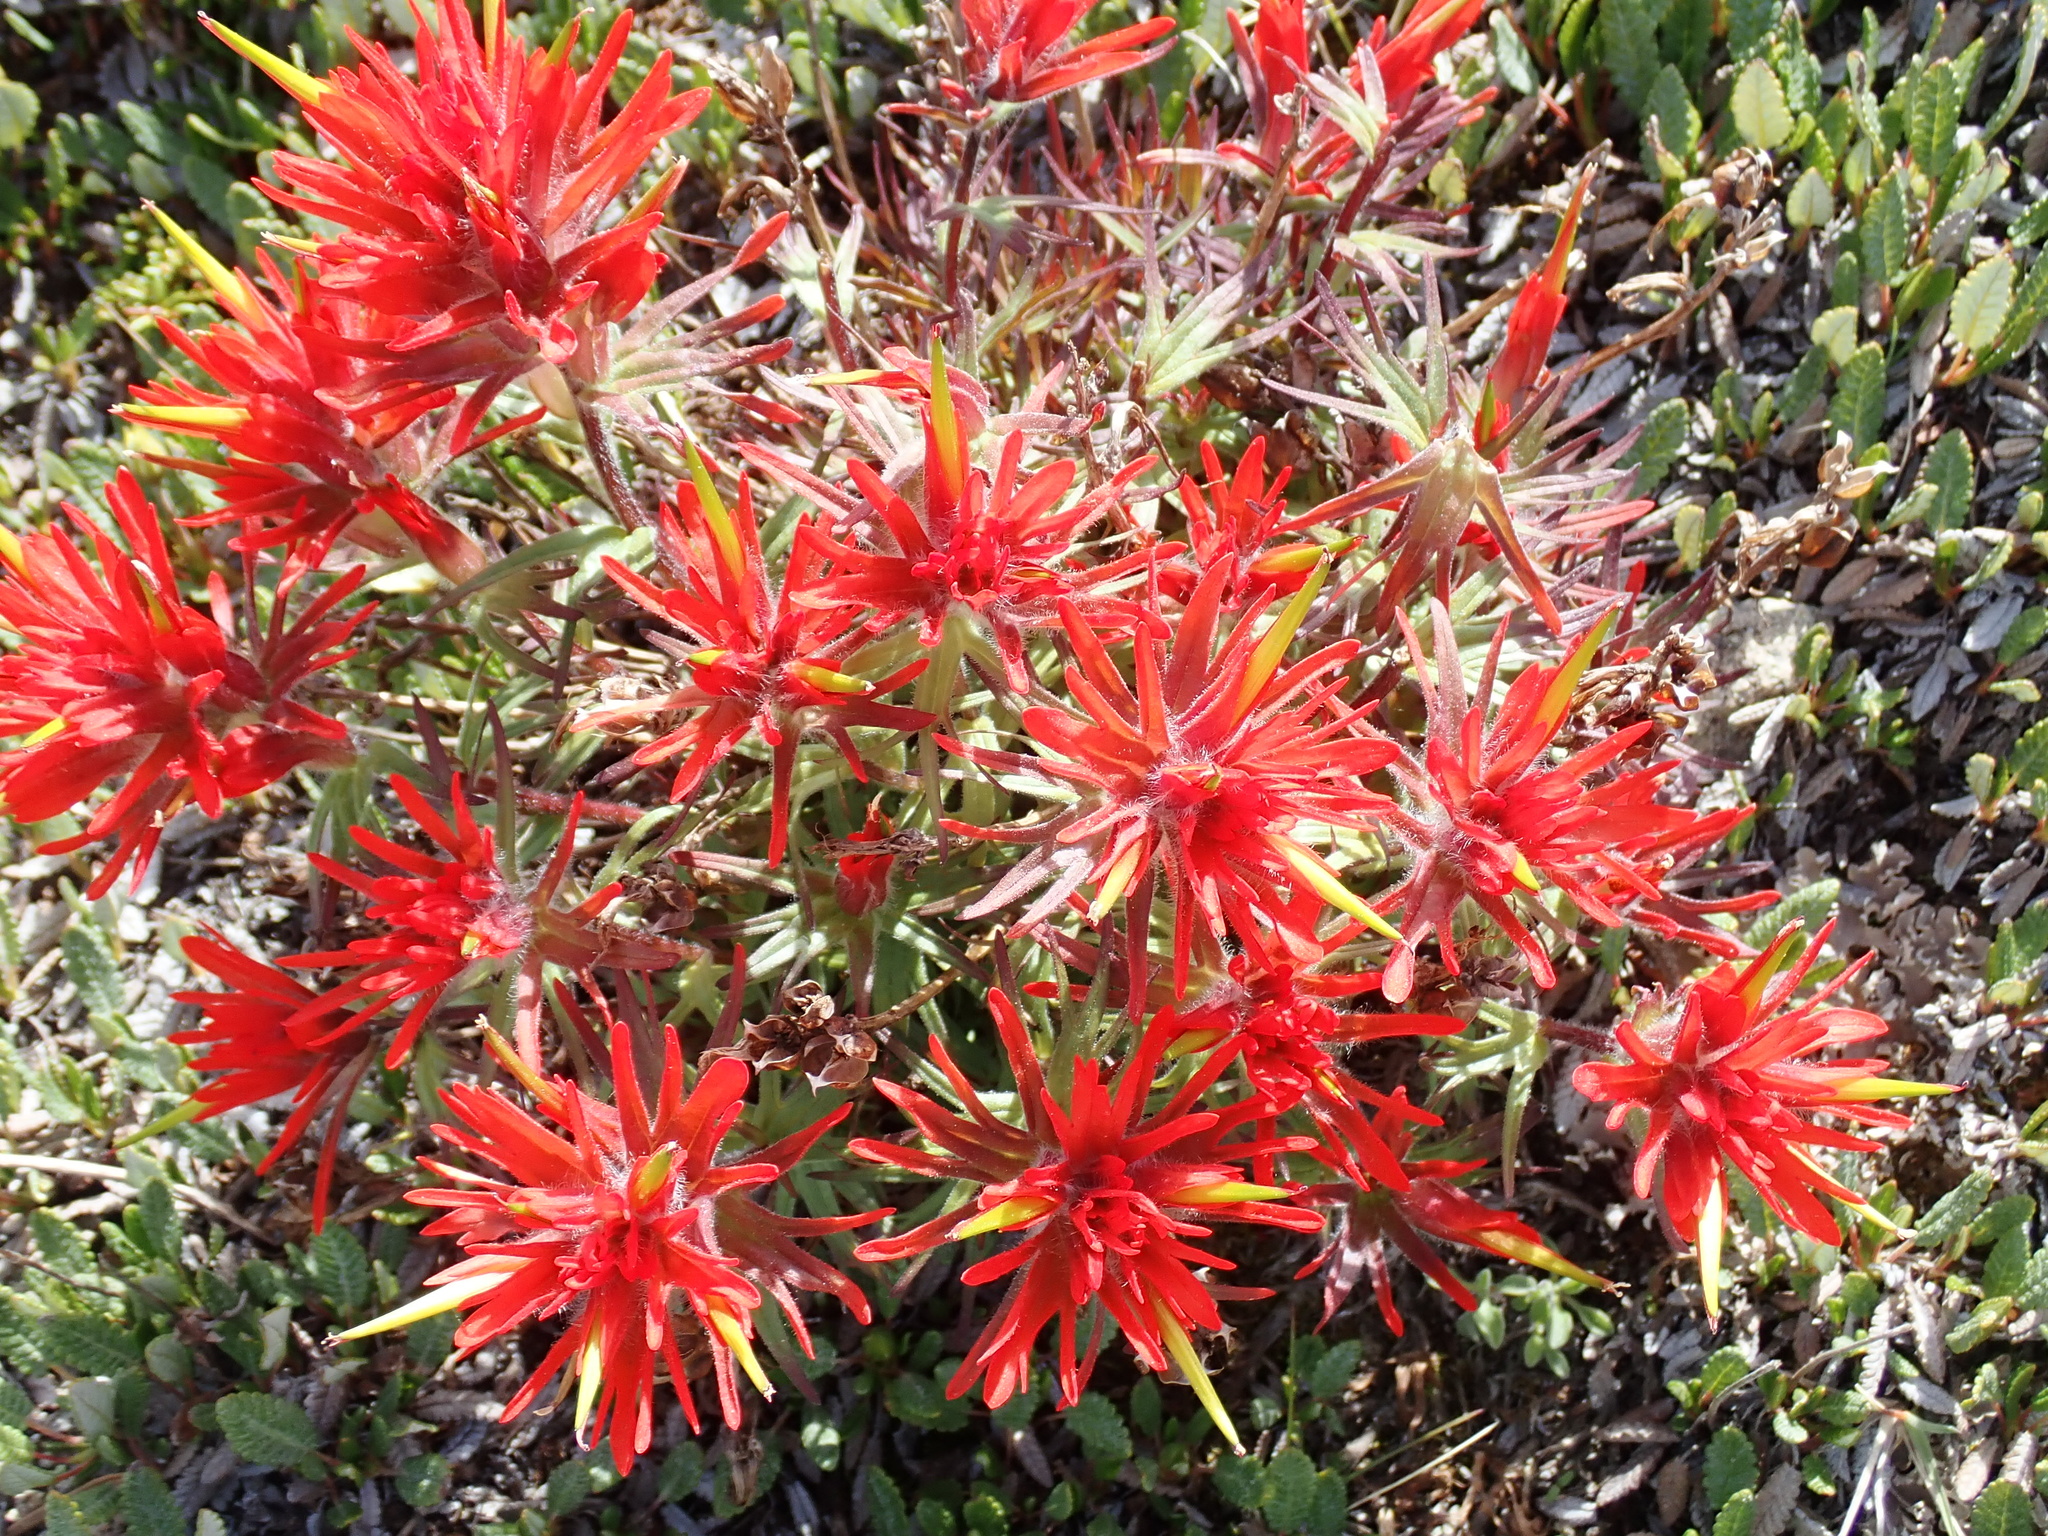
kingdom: Plantae
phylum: Tracheophyta
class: Magnoliopsida
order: Lamiales
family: Orobanchaceae
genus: Castilleja
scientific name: Castilleja rupicola
